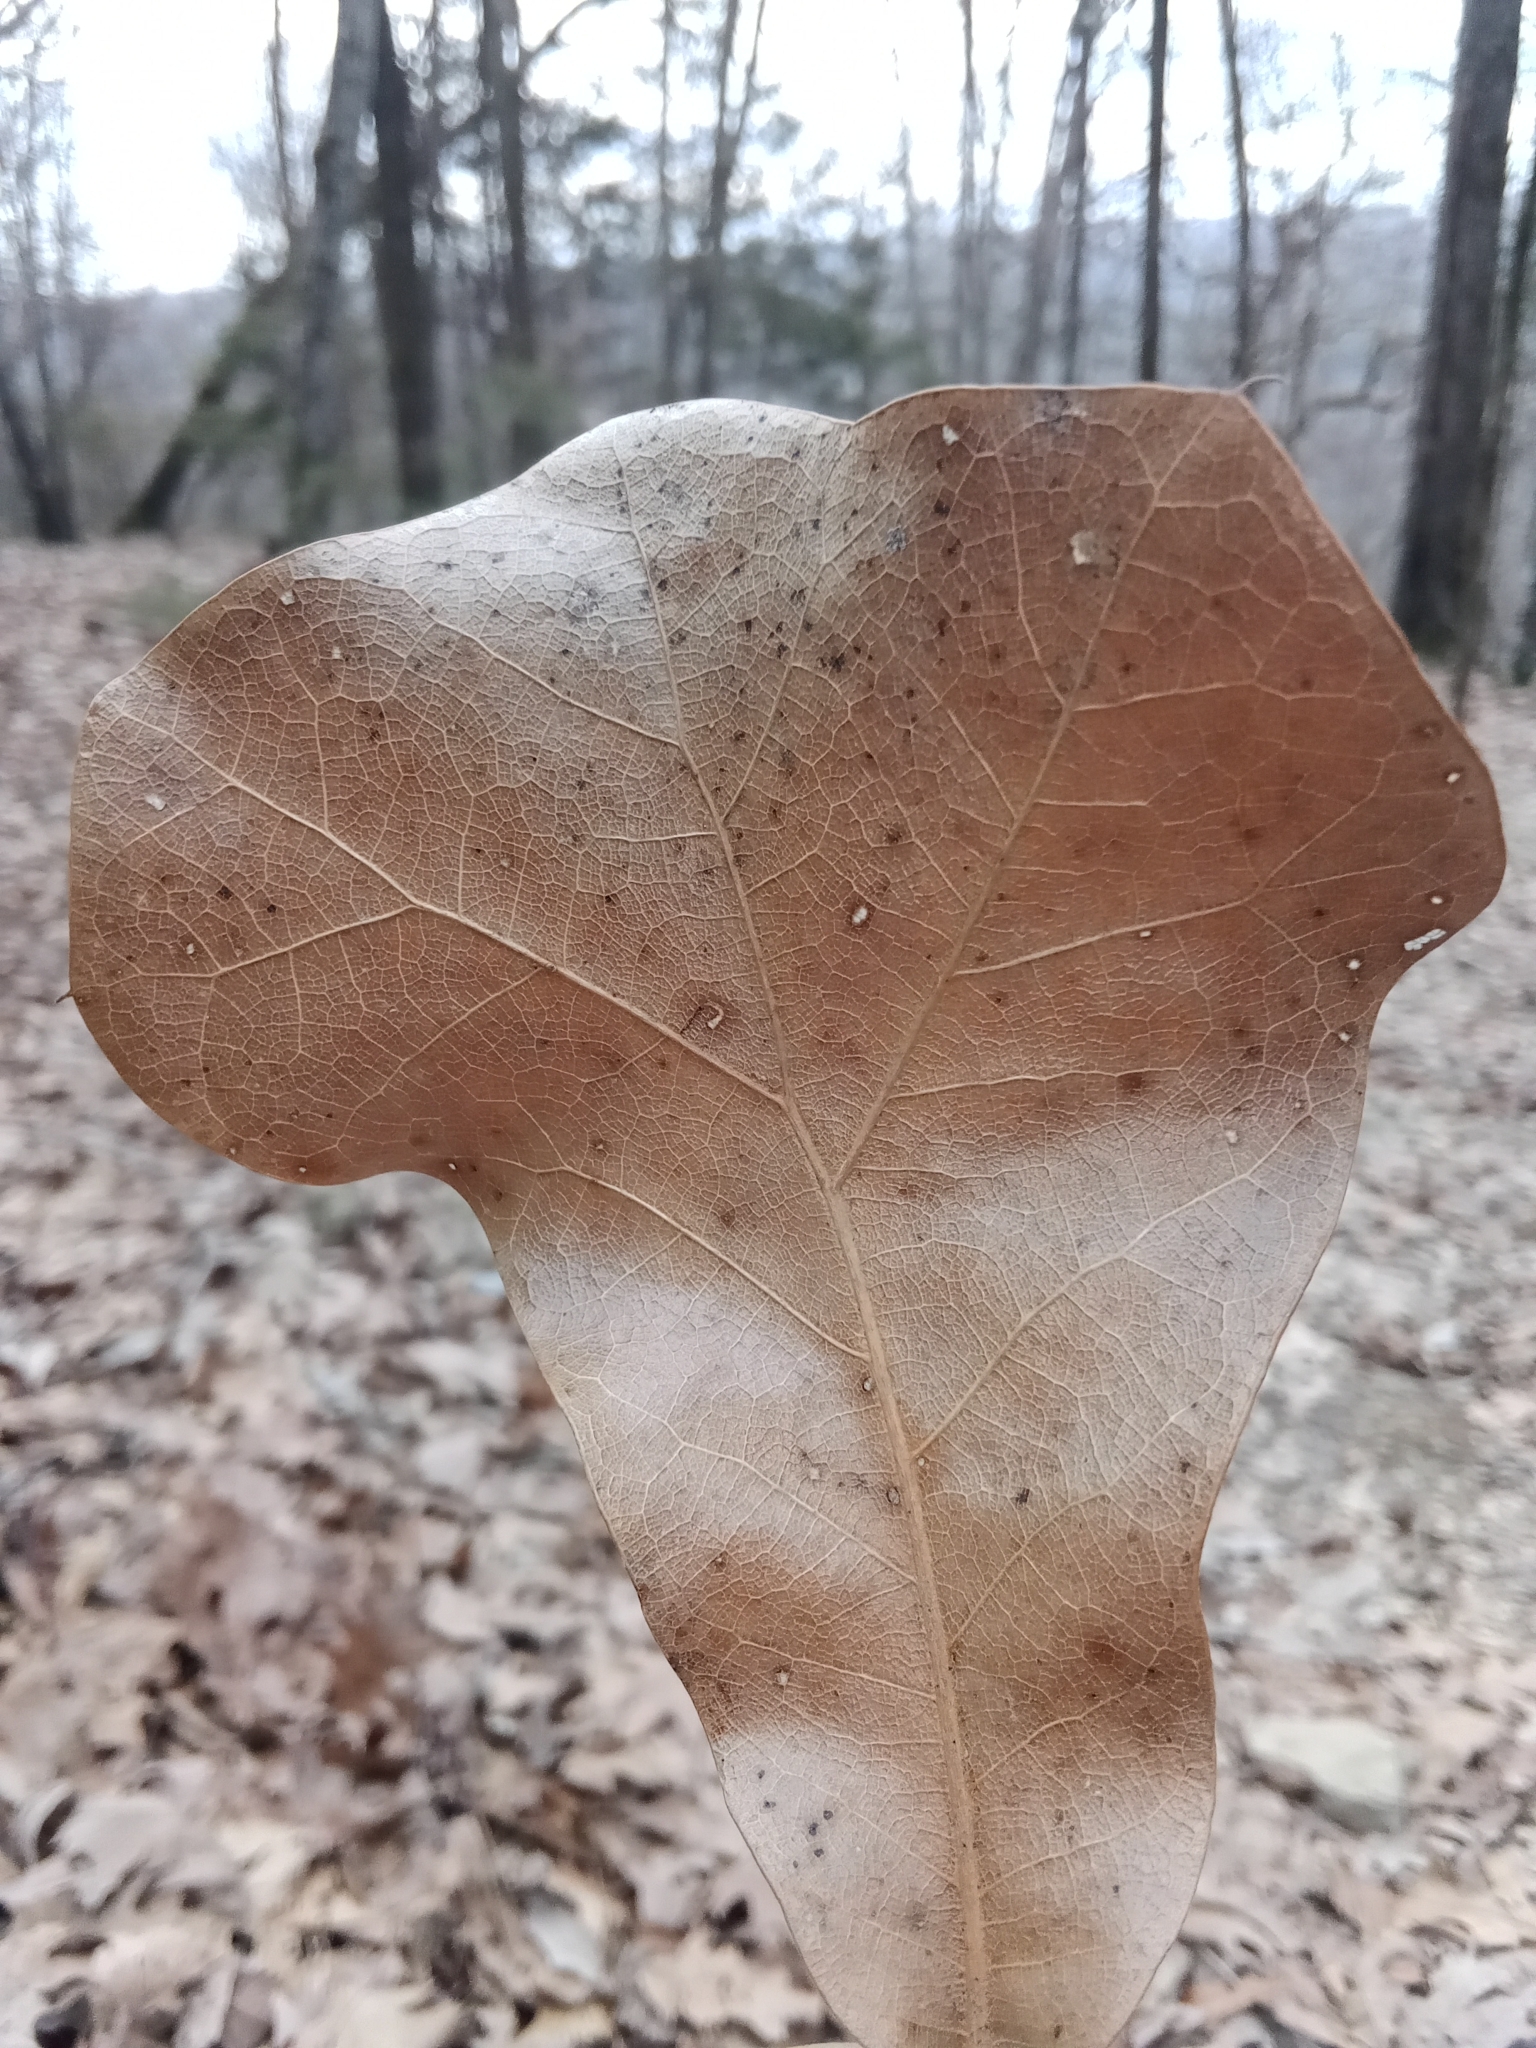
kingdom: Plantae
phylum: Tracheophyta
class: Magnoliopsida
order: Fagales
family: Fagaceae
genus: Quercus
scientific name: Quercus marilandica
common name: Blackjack oak
